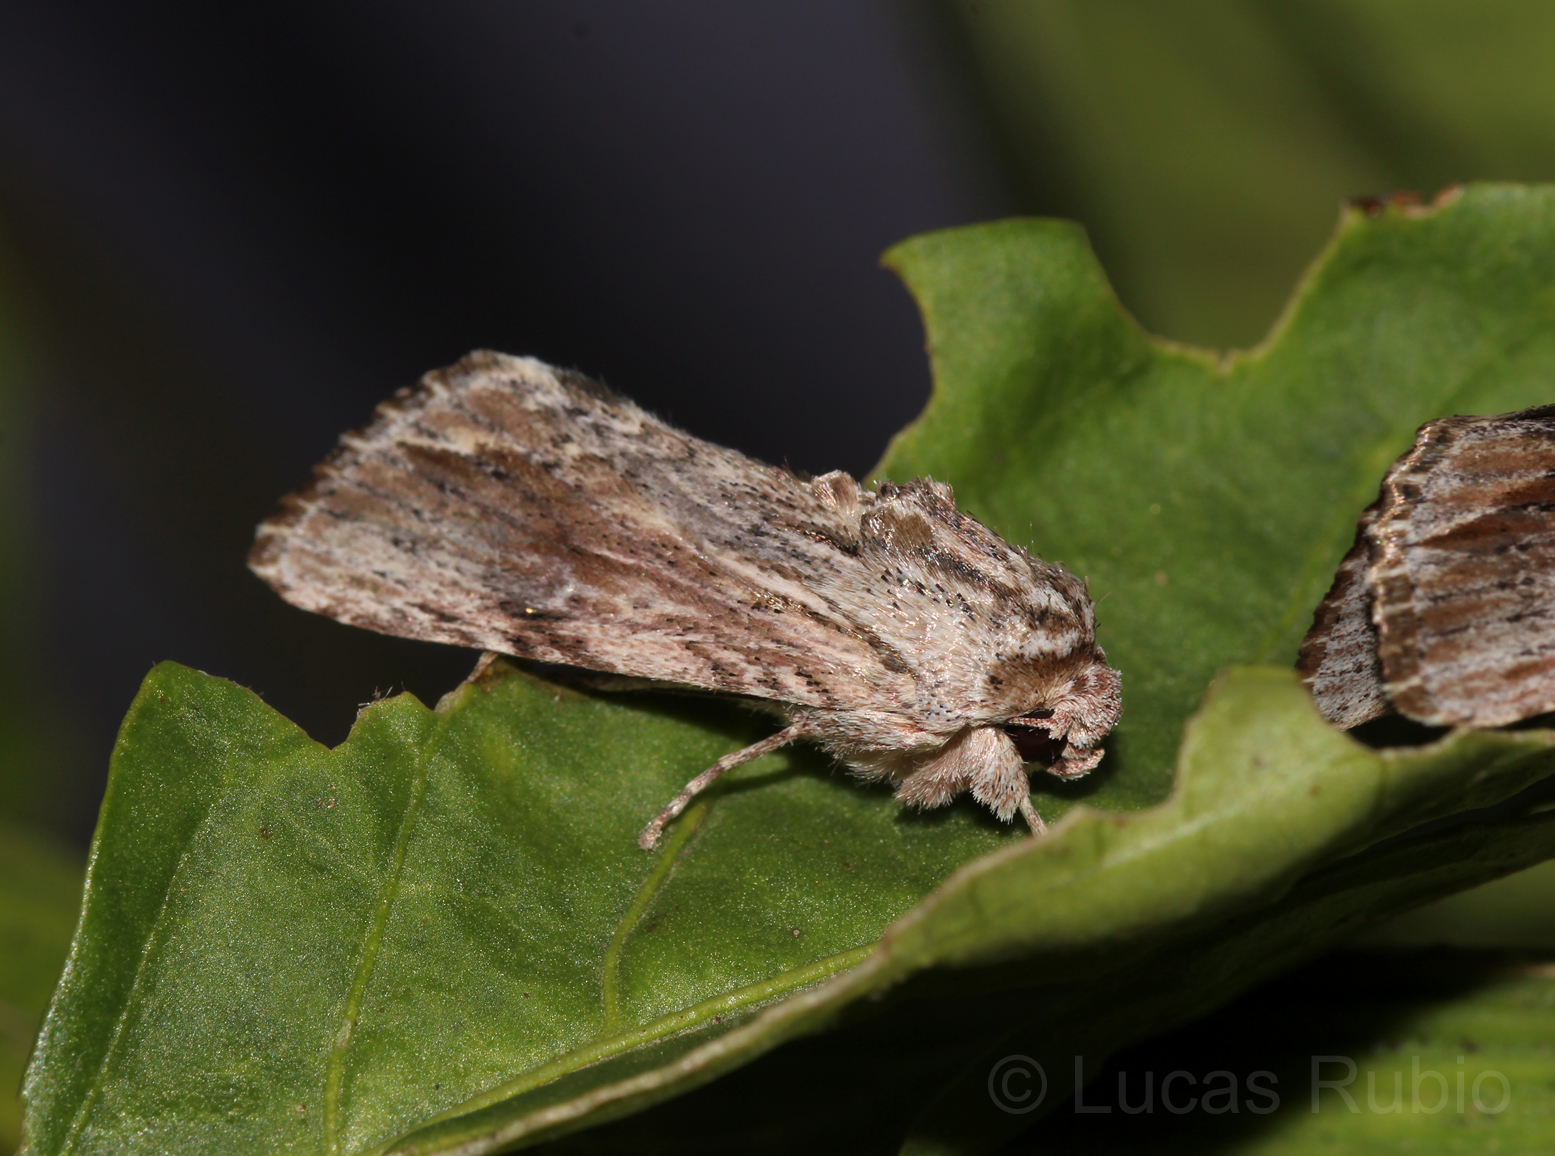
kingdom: Animalia
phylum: Arthropoda
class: Insecta
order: Lepidoptera
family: Noctuidae
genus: Spodoptera
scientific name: Spodoptera eridania
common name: Southern army worm
